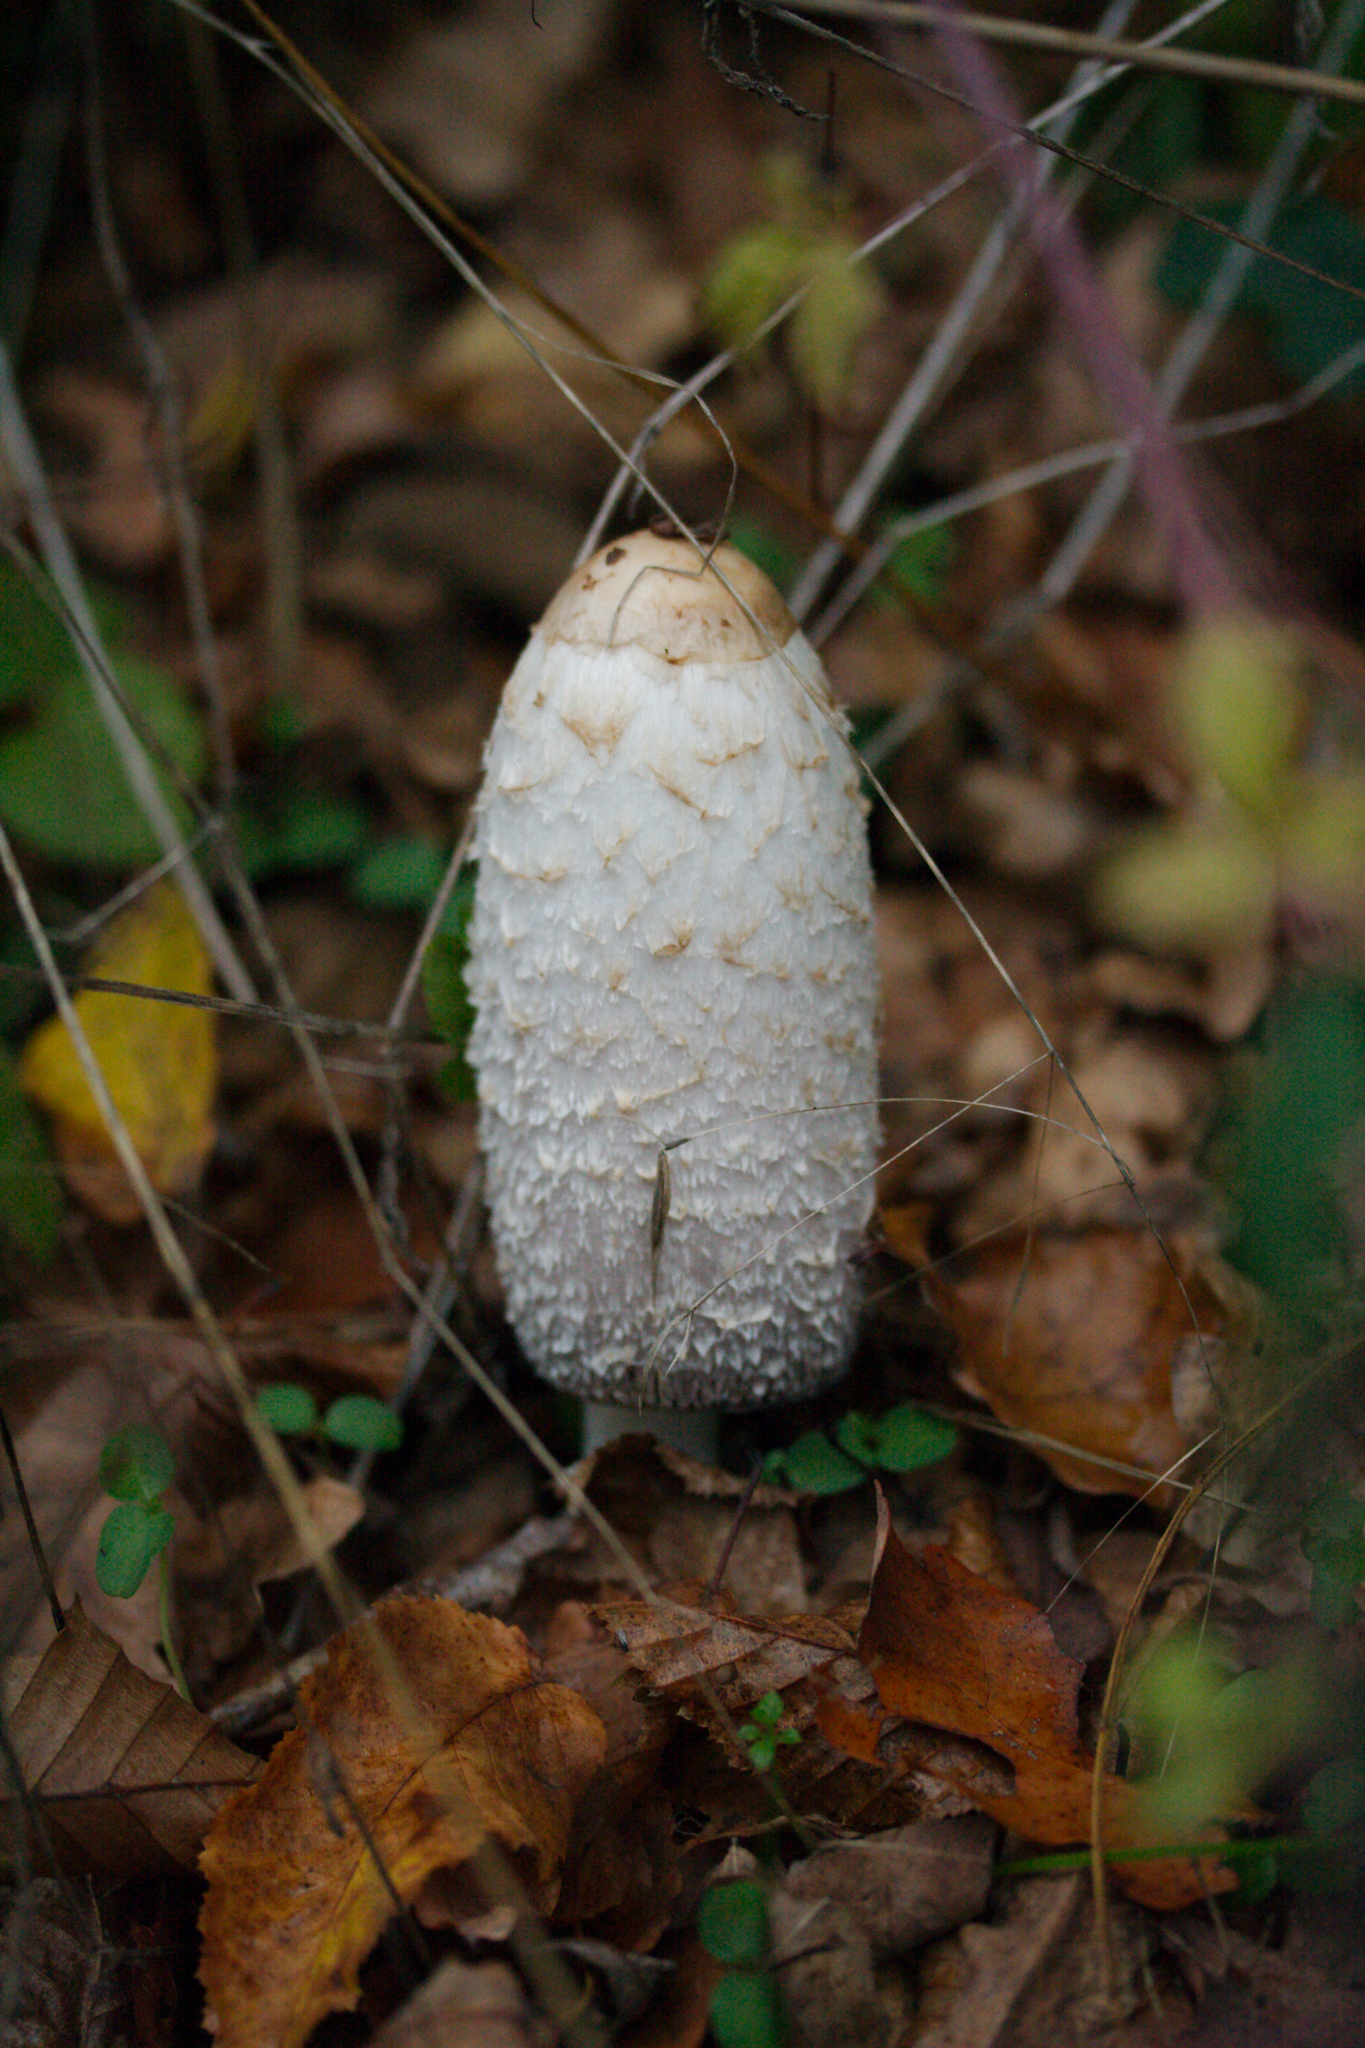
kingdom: Fungi
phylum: Basidiomycota
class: Agaricomycetes
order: Agaricales
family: Agaricaceae
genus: Coprinus
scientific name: Coprinus comatus
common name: Lawyer's wig
